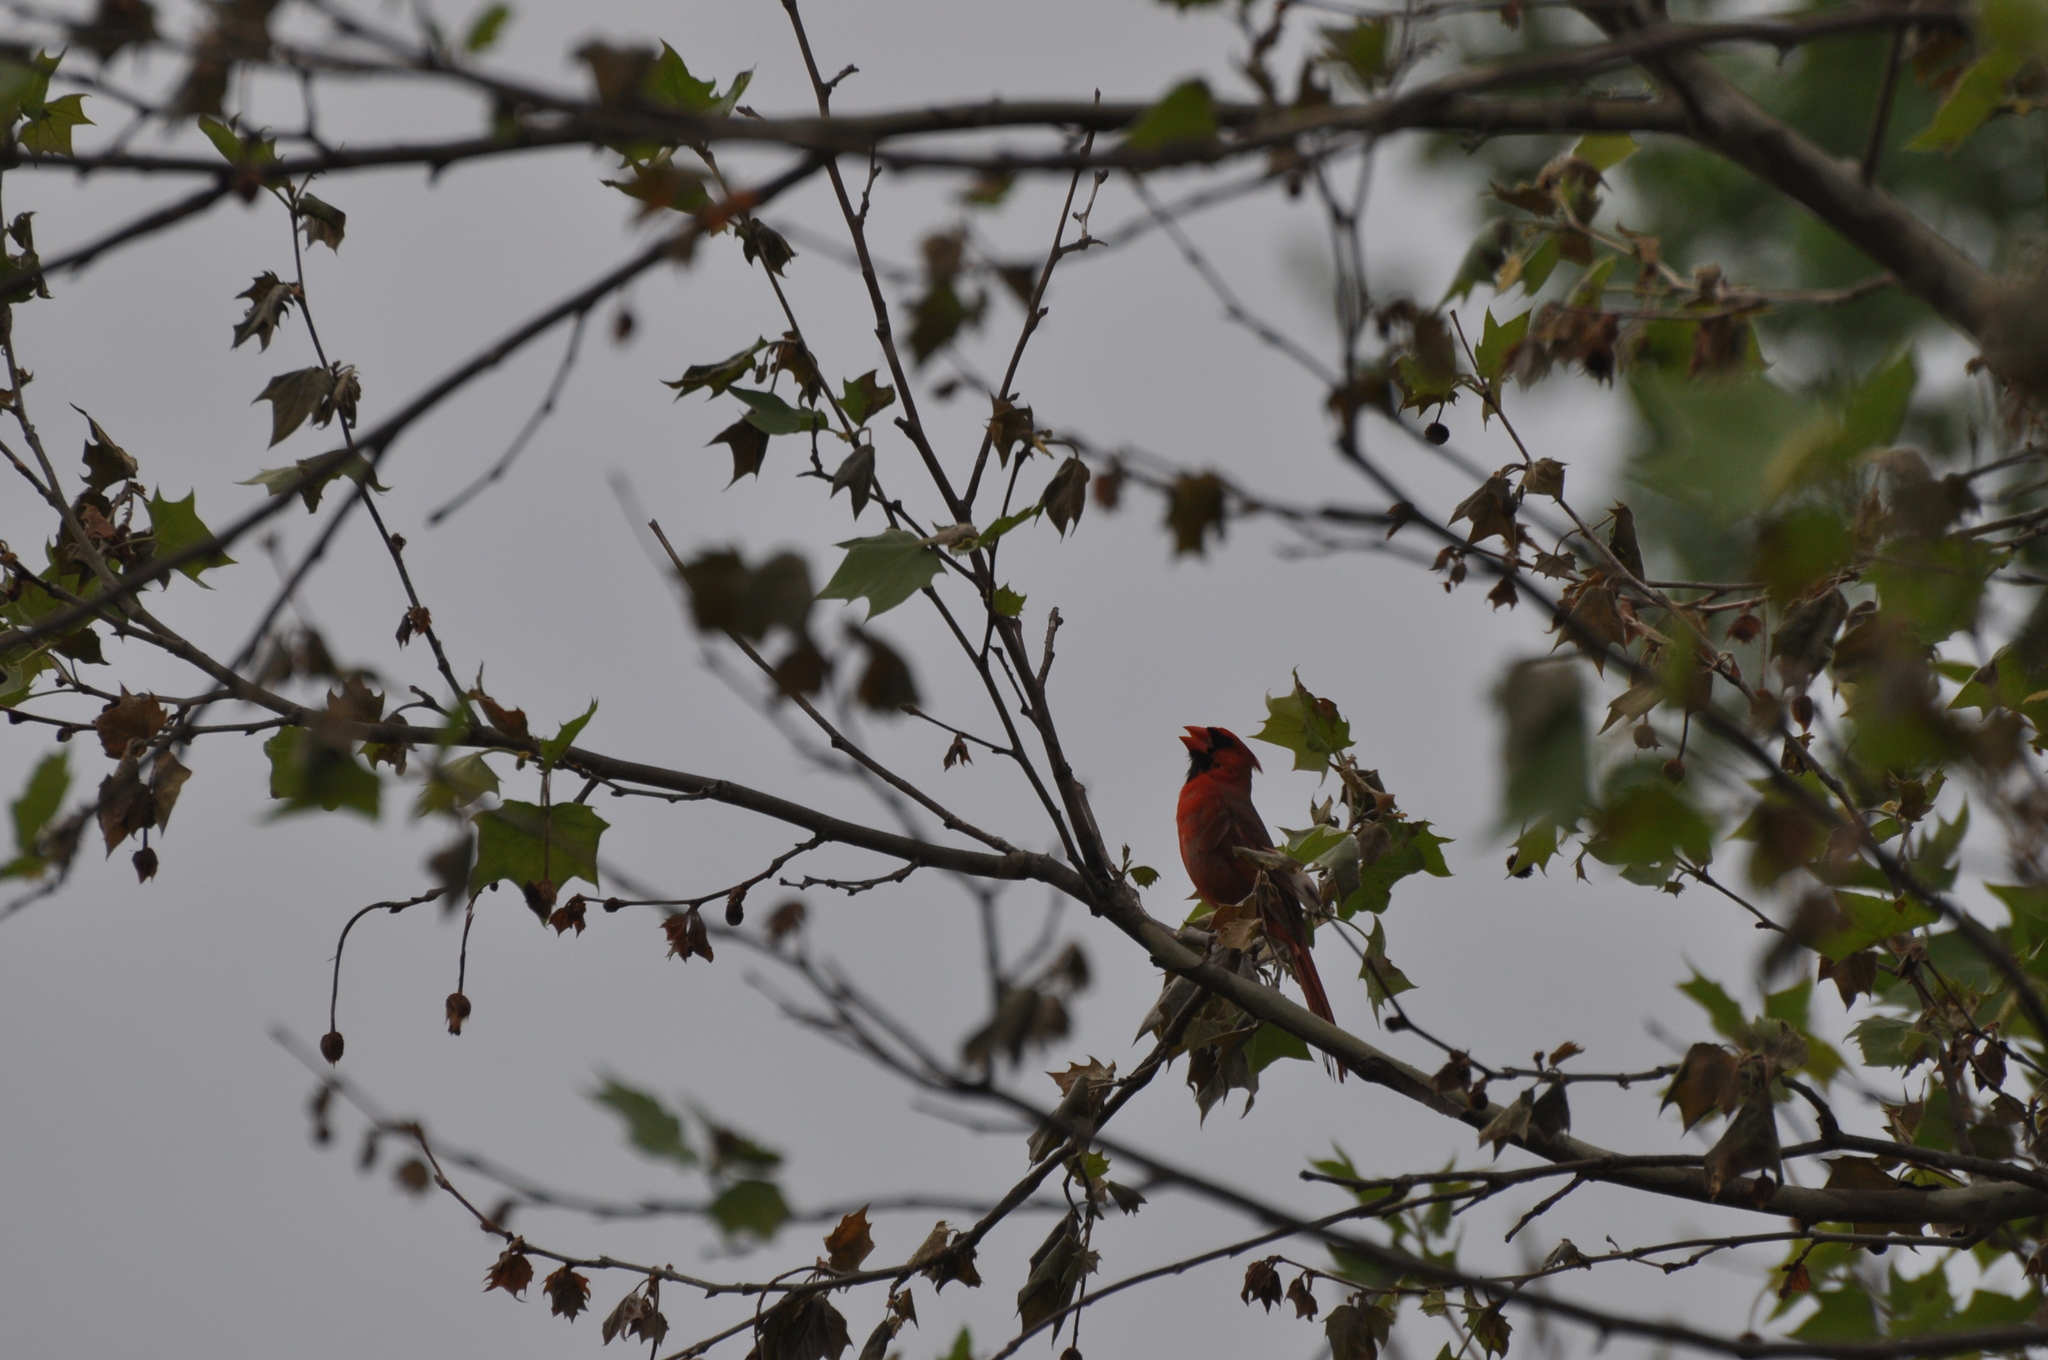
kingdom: Animalia
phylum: Chordata
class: Aves
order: Passeriformes
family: Cardinalidae
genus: Cardinalis
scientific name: Cardinalis cardinalis
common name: Northern cardinal
